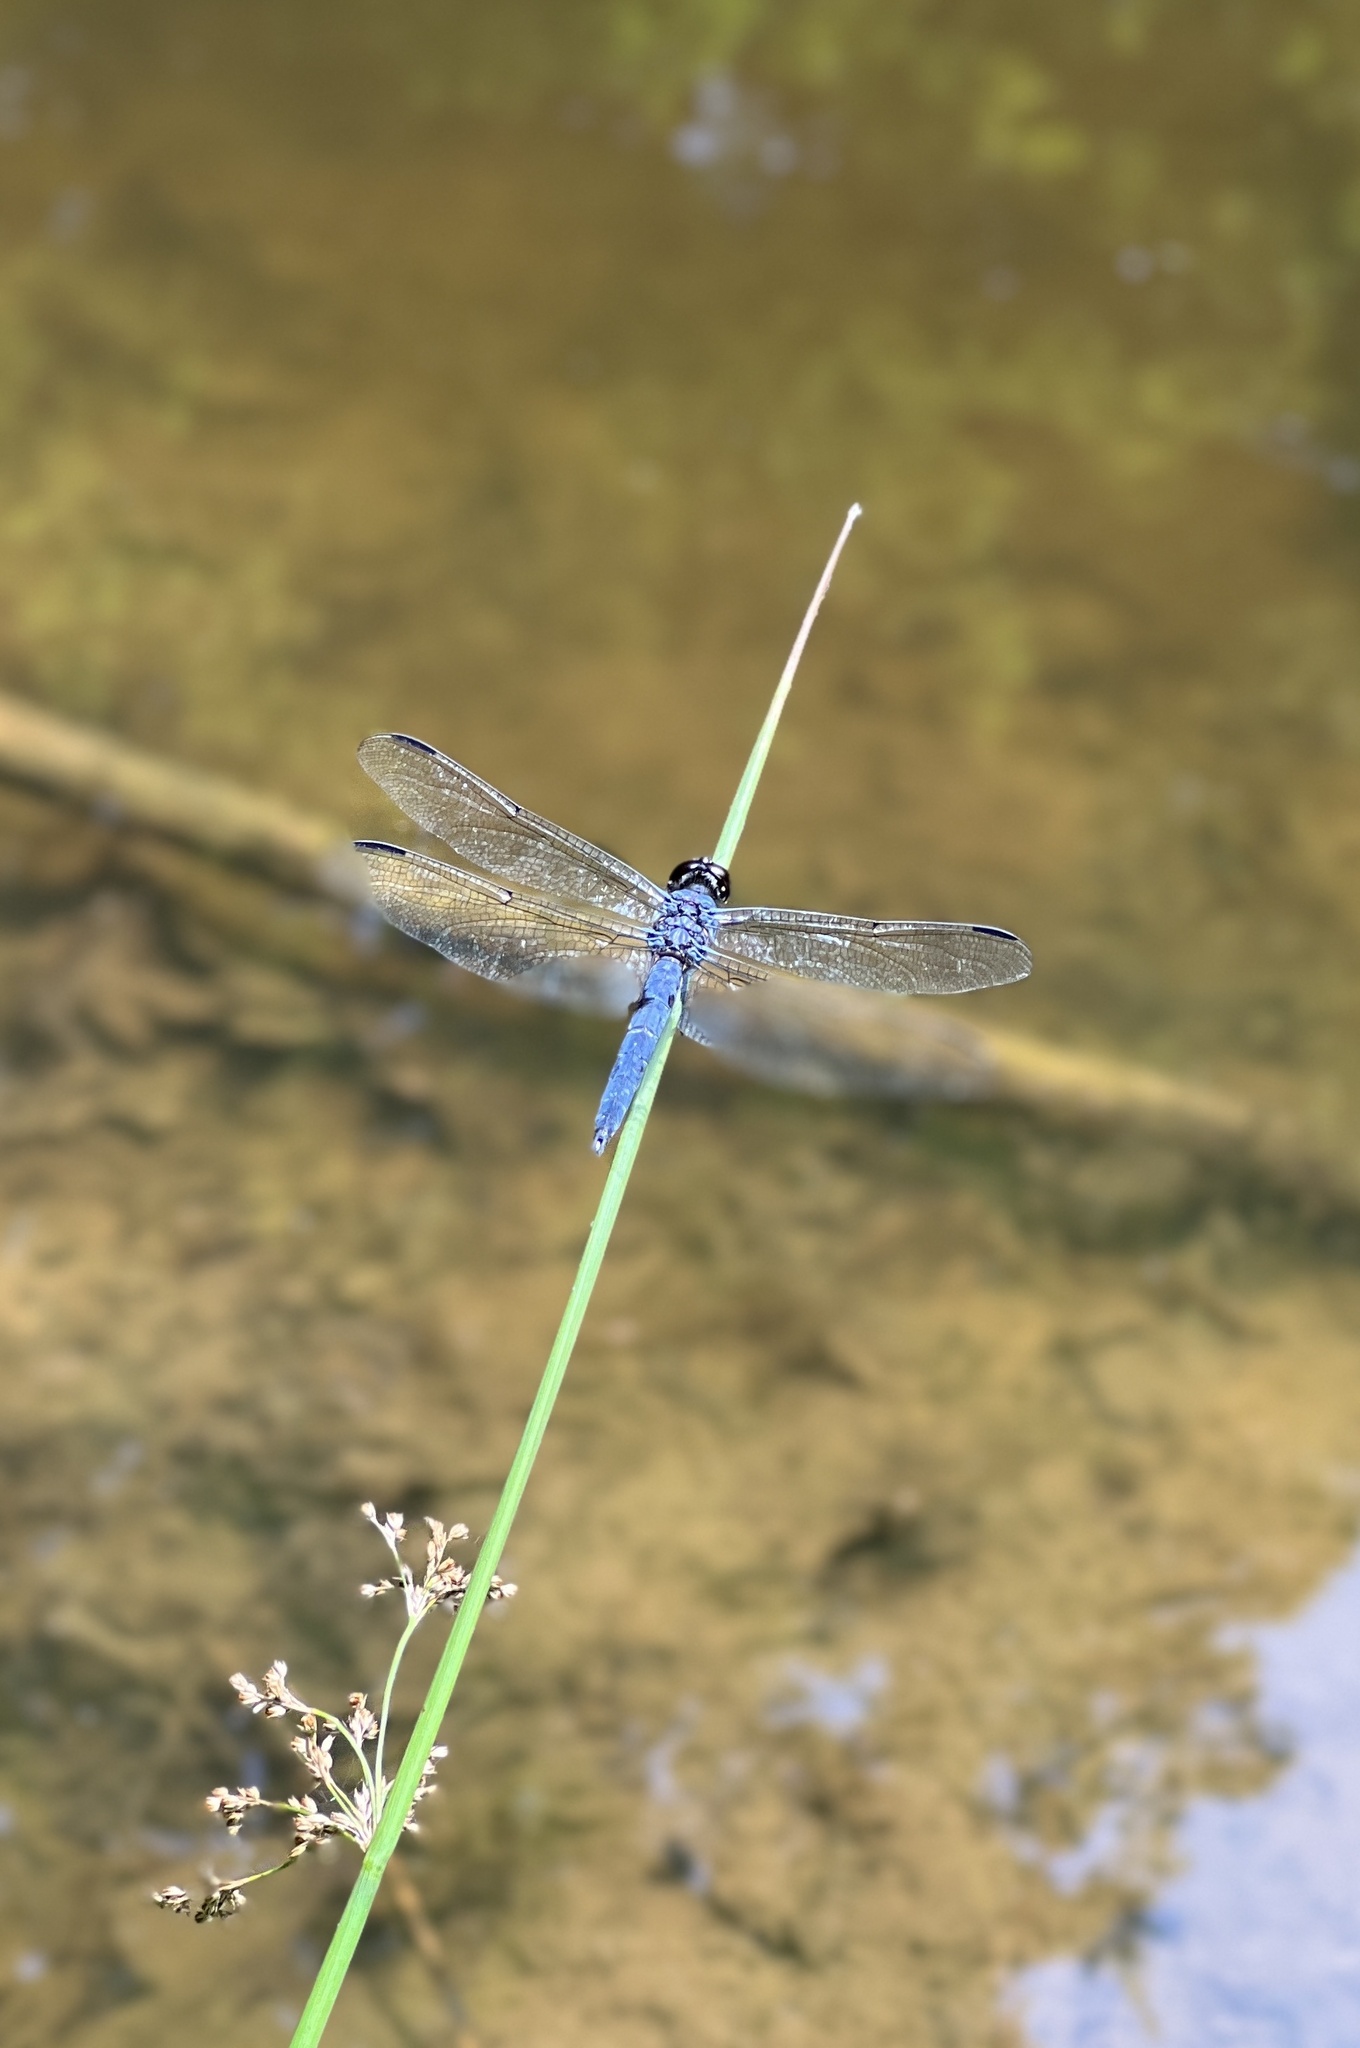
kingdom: Animalia
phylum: Arthropoda
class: Insecta
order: Odonata
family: Libellulidae
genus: Libellula
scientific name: Libellula incesta
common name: Slaty skimmer
